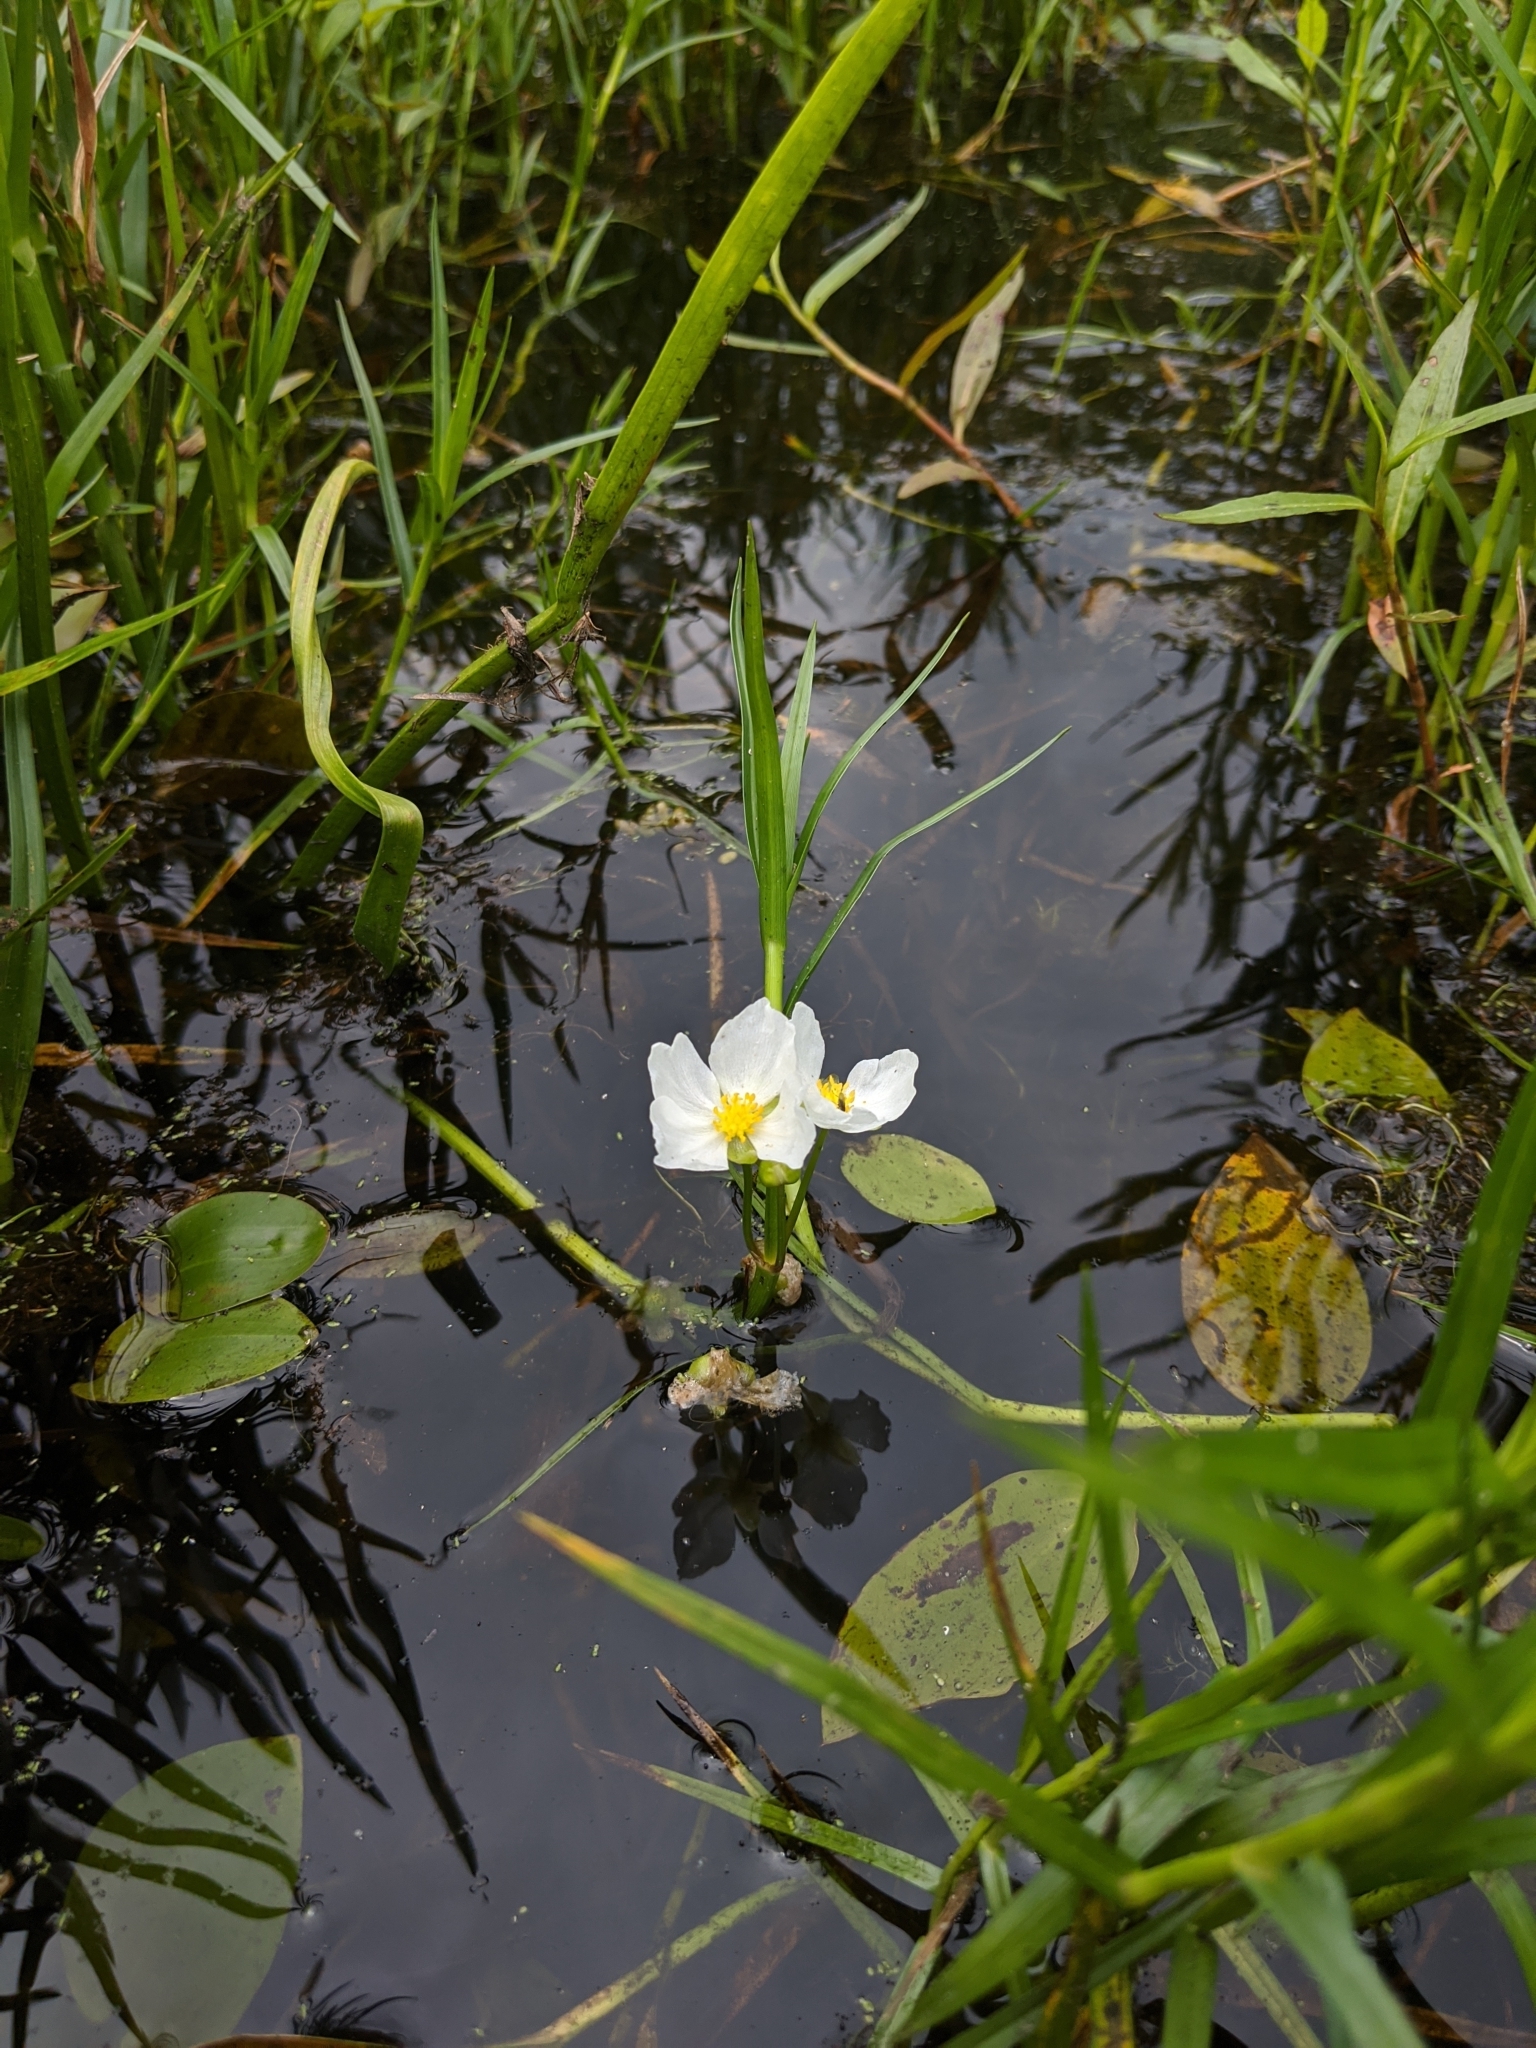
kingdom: Plantae
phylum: Tracheophyta
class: Liliopsida
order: Alismatales
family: Alismataceae
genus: Sagittaria
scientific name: Sagittaria rigida
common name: Canadian arrowhead
